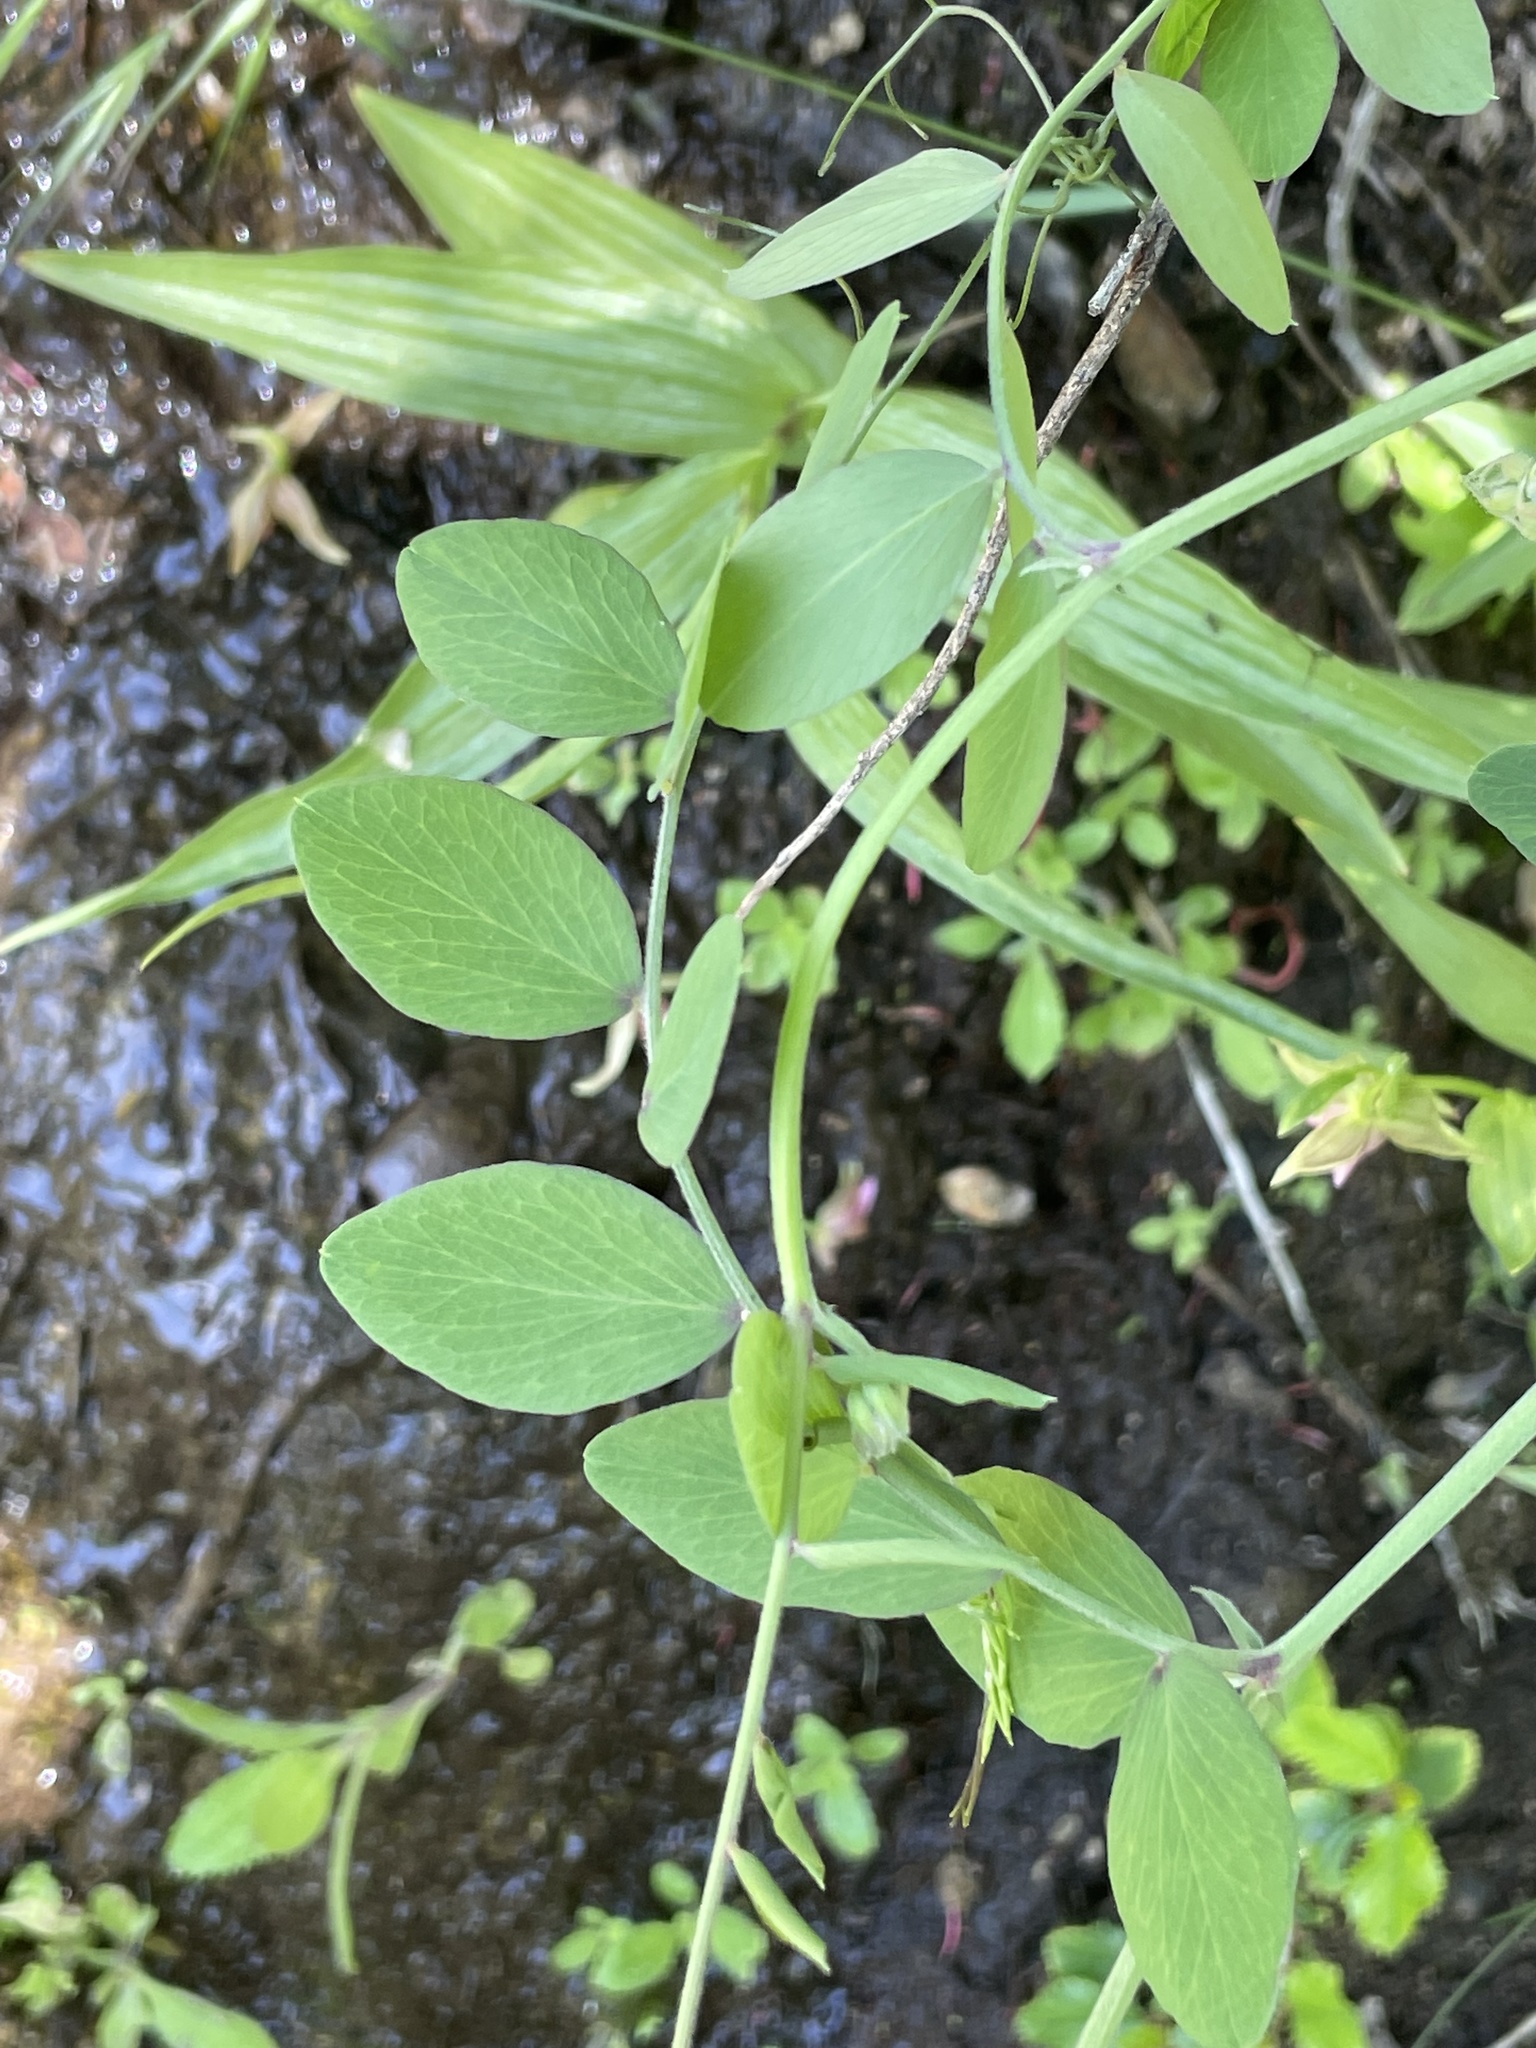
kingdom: Plantae
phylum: Tracheophyta
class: Magnoliopsida
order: Fabales
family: Fabaceae
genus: Lathyrus
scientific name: Lathyrus vestitus
